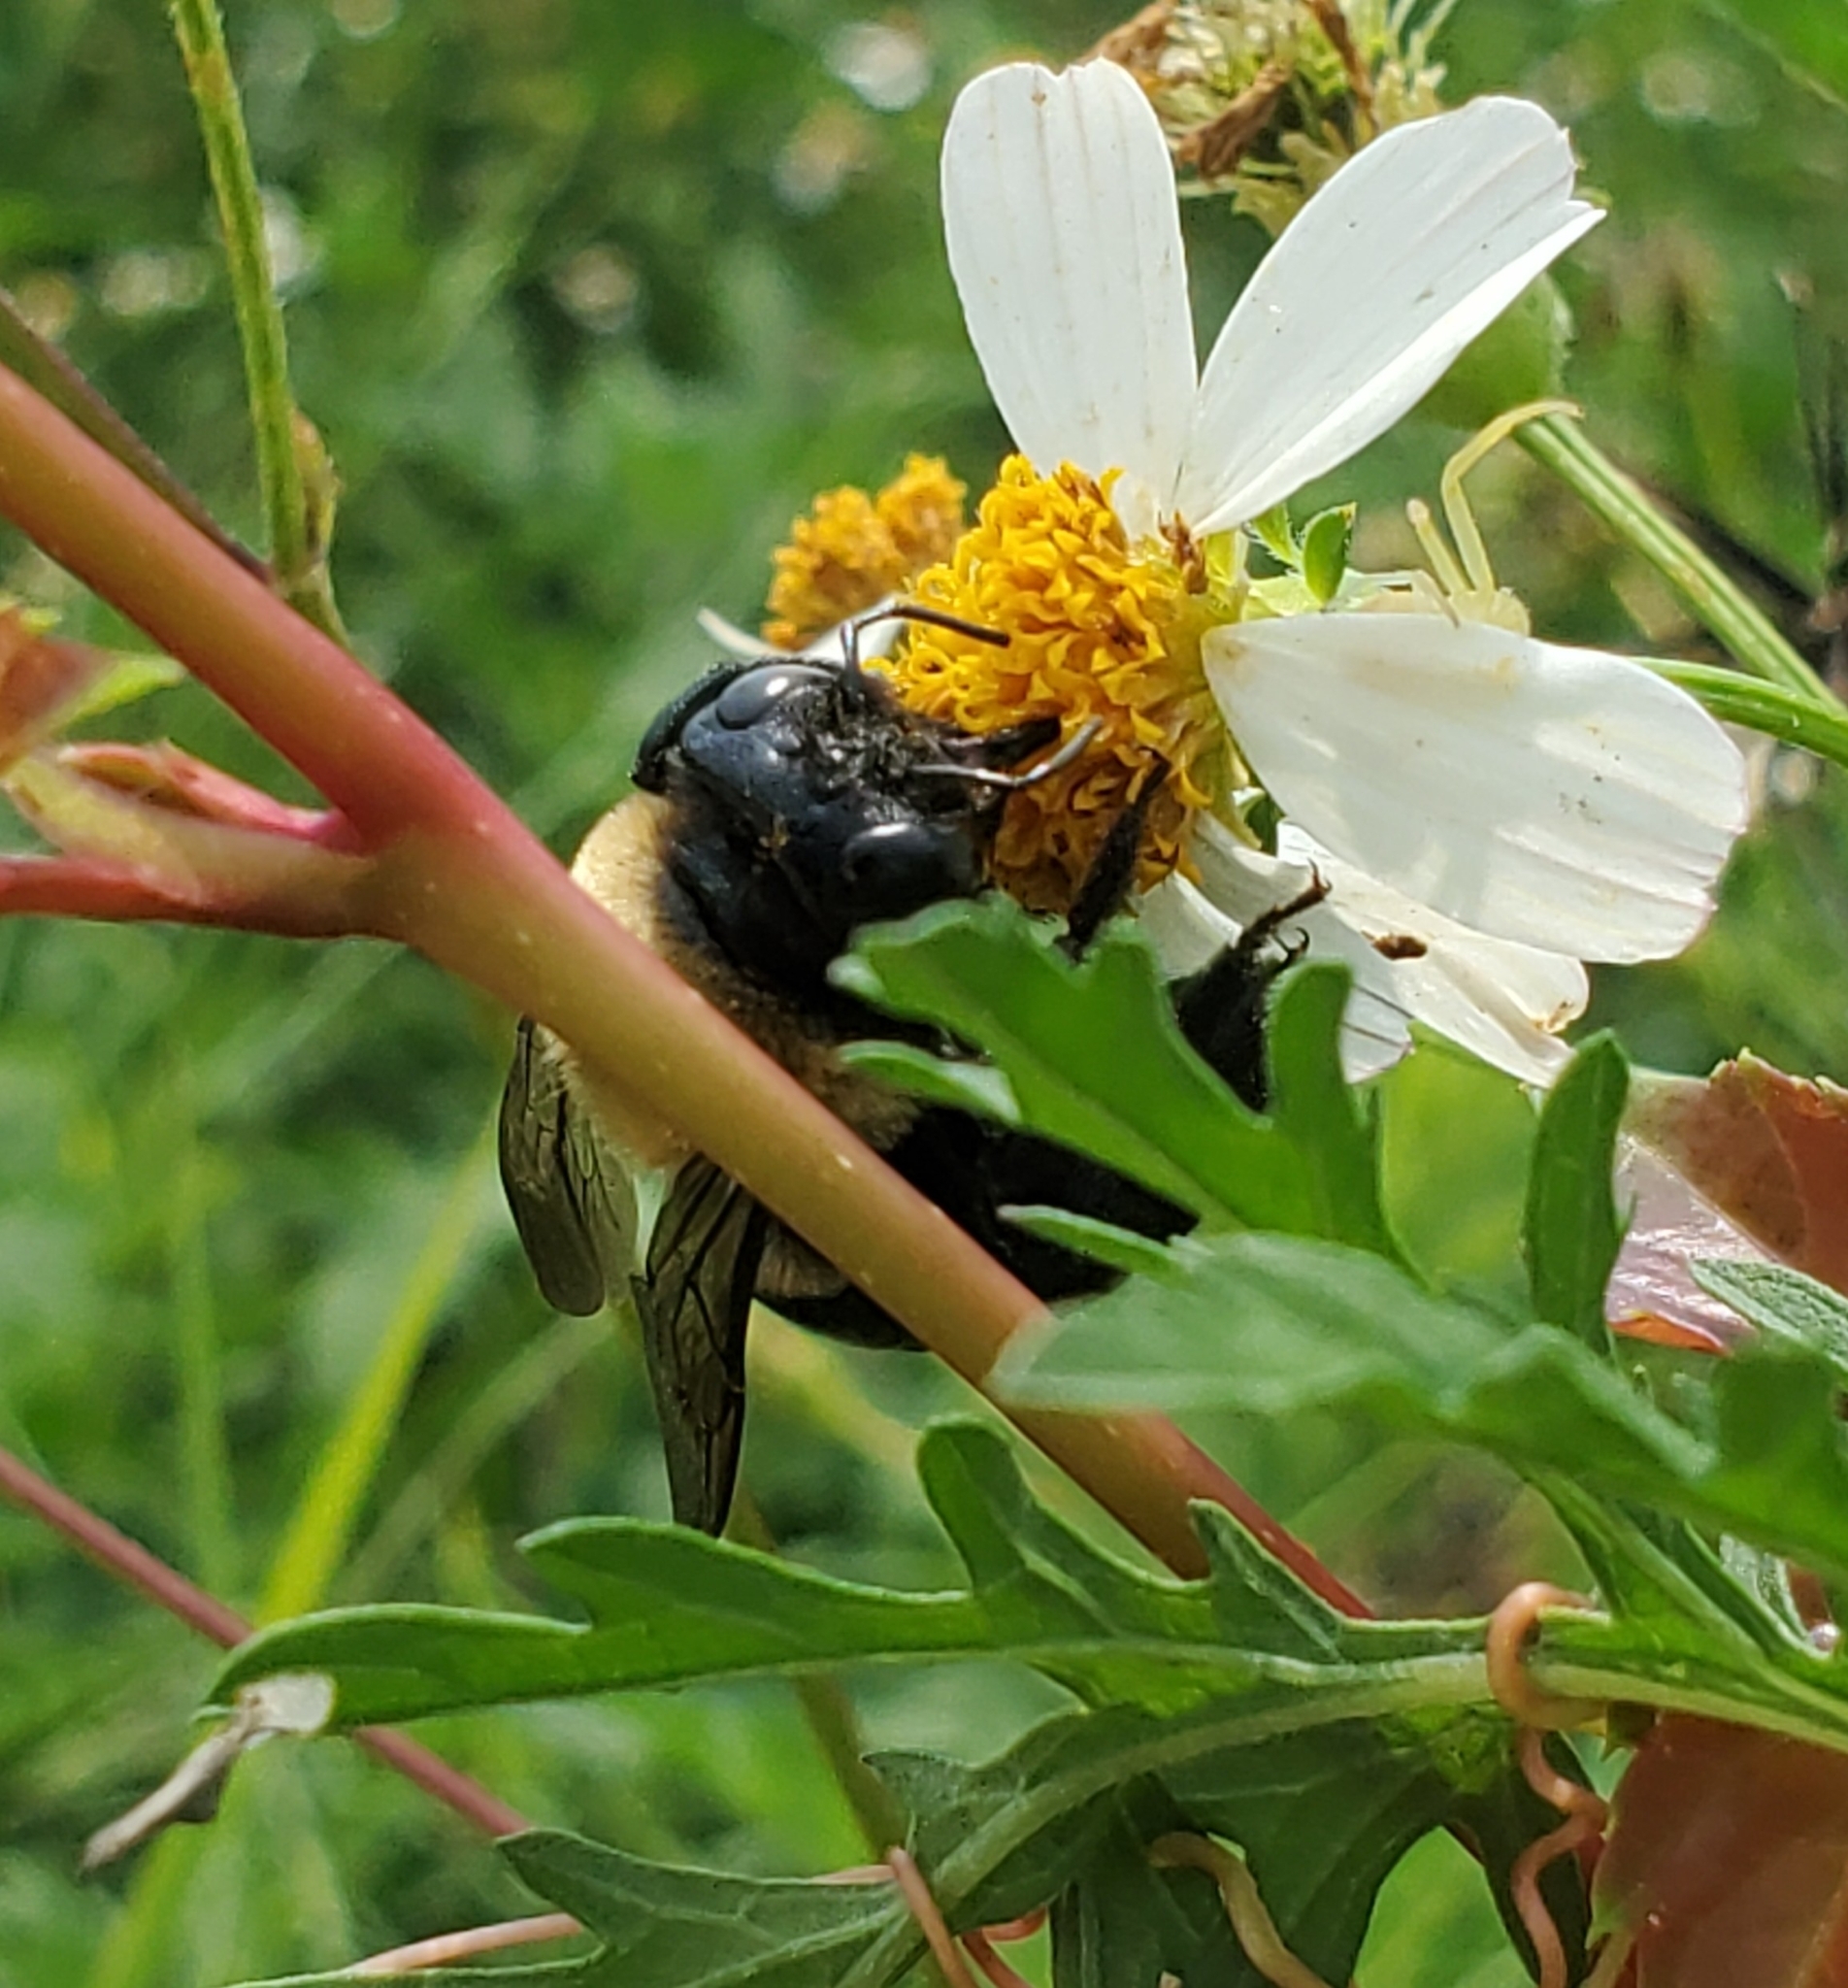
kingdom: Animalia
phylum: Arthropoda
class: Insecta
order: Hymenoptera
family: Apidae
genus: Xylocopa
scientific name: Xylocopa virginica
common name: Carpenter bee
